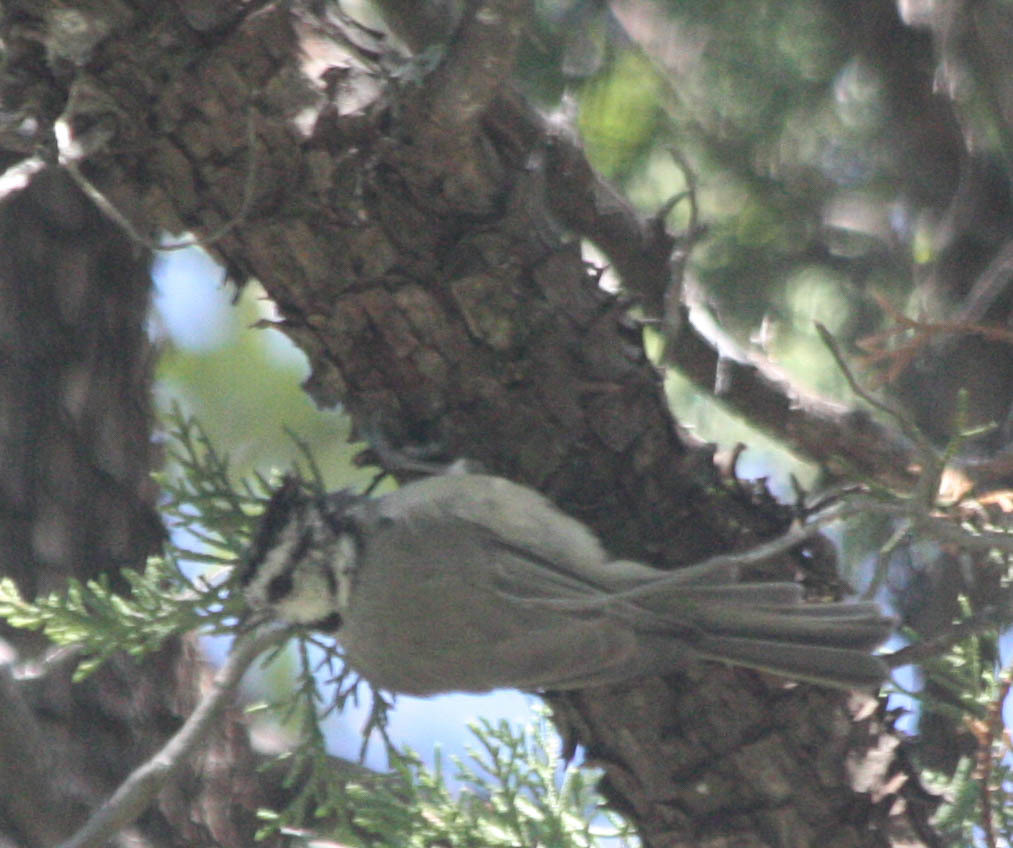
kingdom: Animalia
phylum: Chordata
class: Aves
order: Passeriformes
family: Paridae
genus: Baeolophus
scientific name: Baeolophus wollweberi
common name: Bridled titmouse
